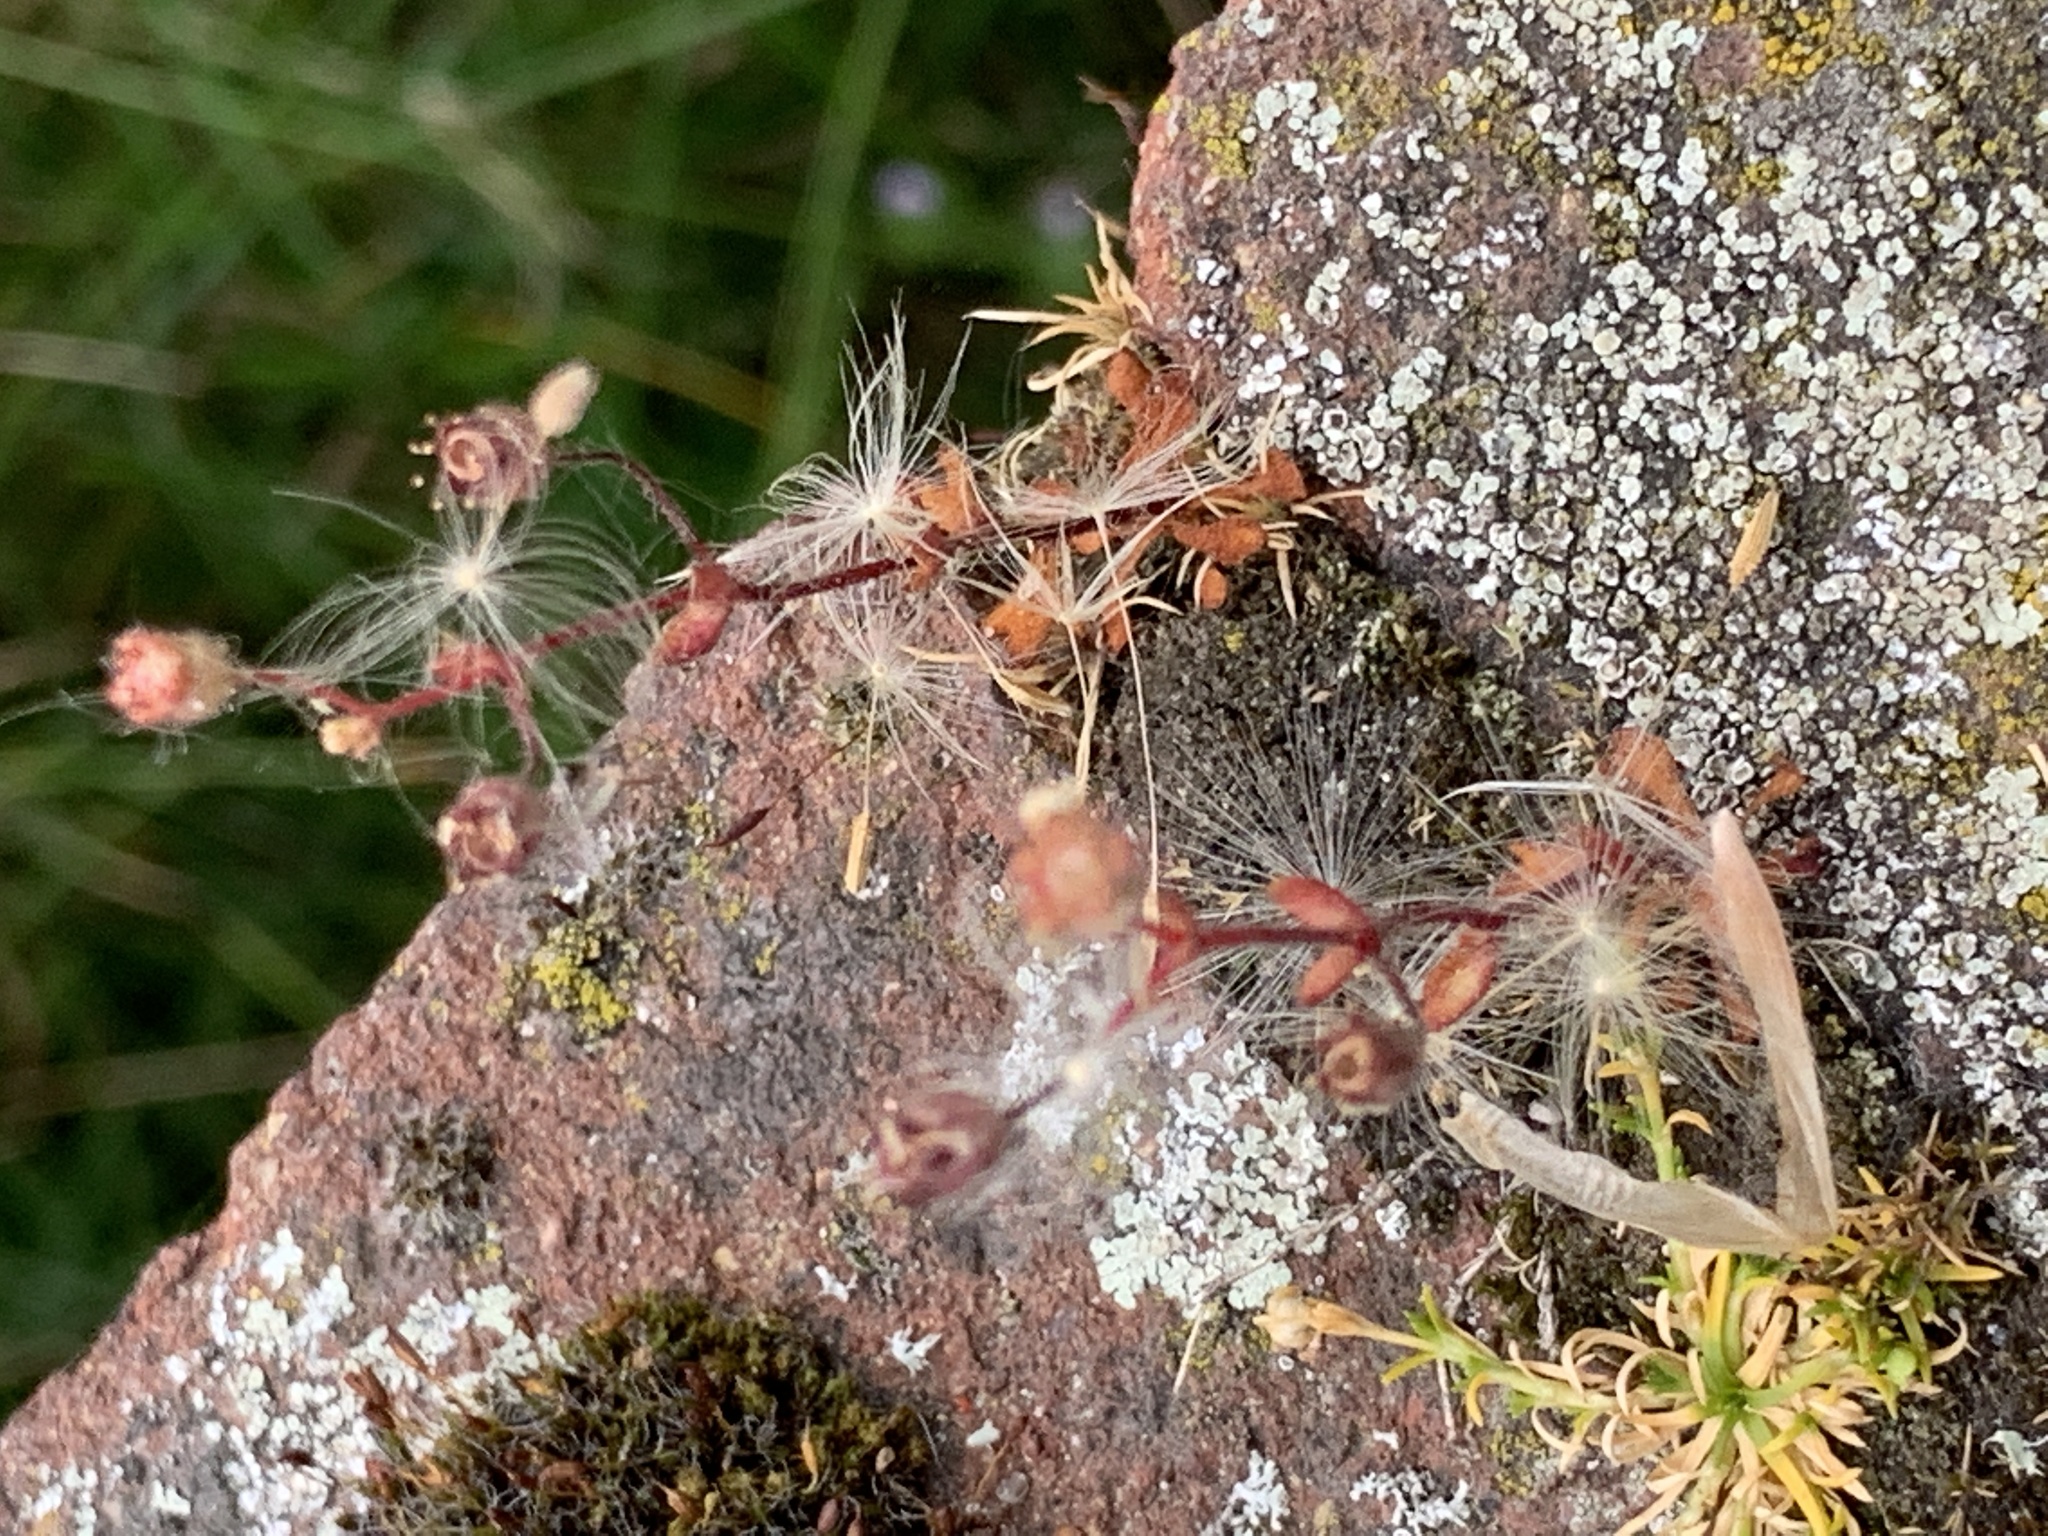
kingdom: Plantae
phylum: Tracheophyta
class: Magnoliopsida
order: Saxifragales
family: Saxifragaceae
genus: Saxifraga
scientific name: Saxifraga tridactylites
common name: Rue-leaved saxifrage
